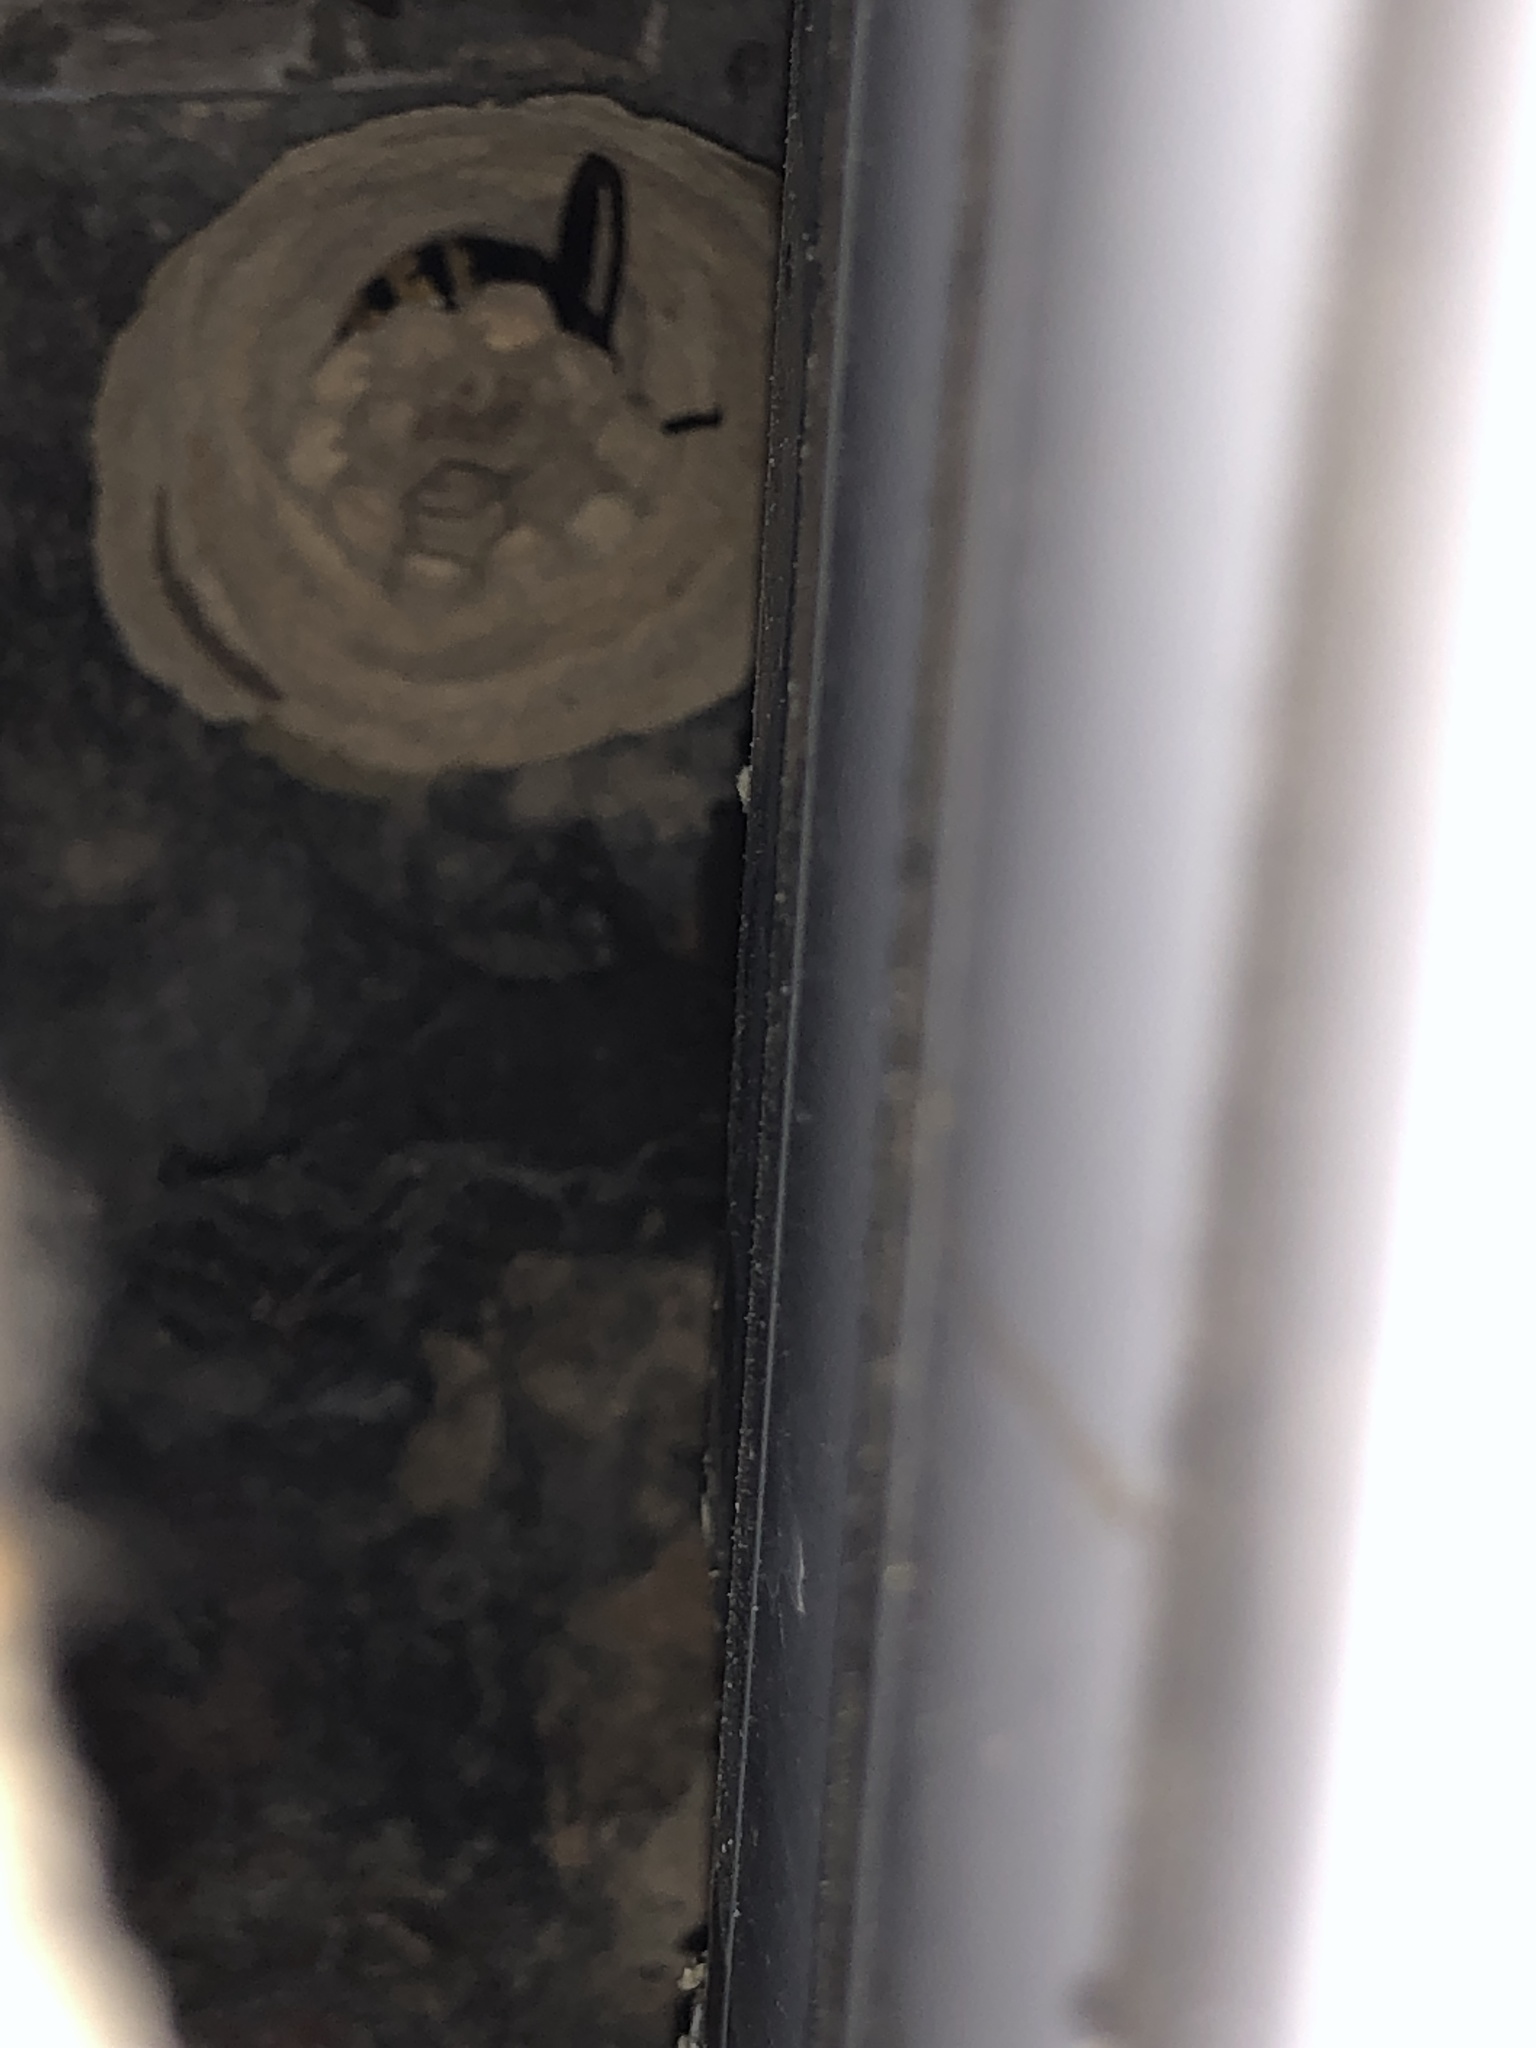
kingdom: Animalia
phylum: Arthropoda
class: Insecta
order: Hymenoptera
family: Vespidae
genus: Vespa
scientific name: Vespa crabro
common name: Hornet
